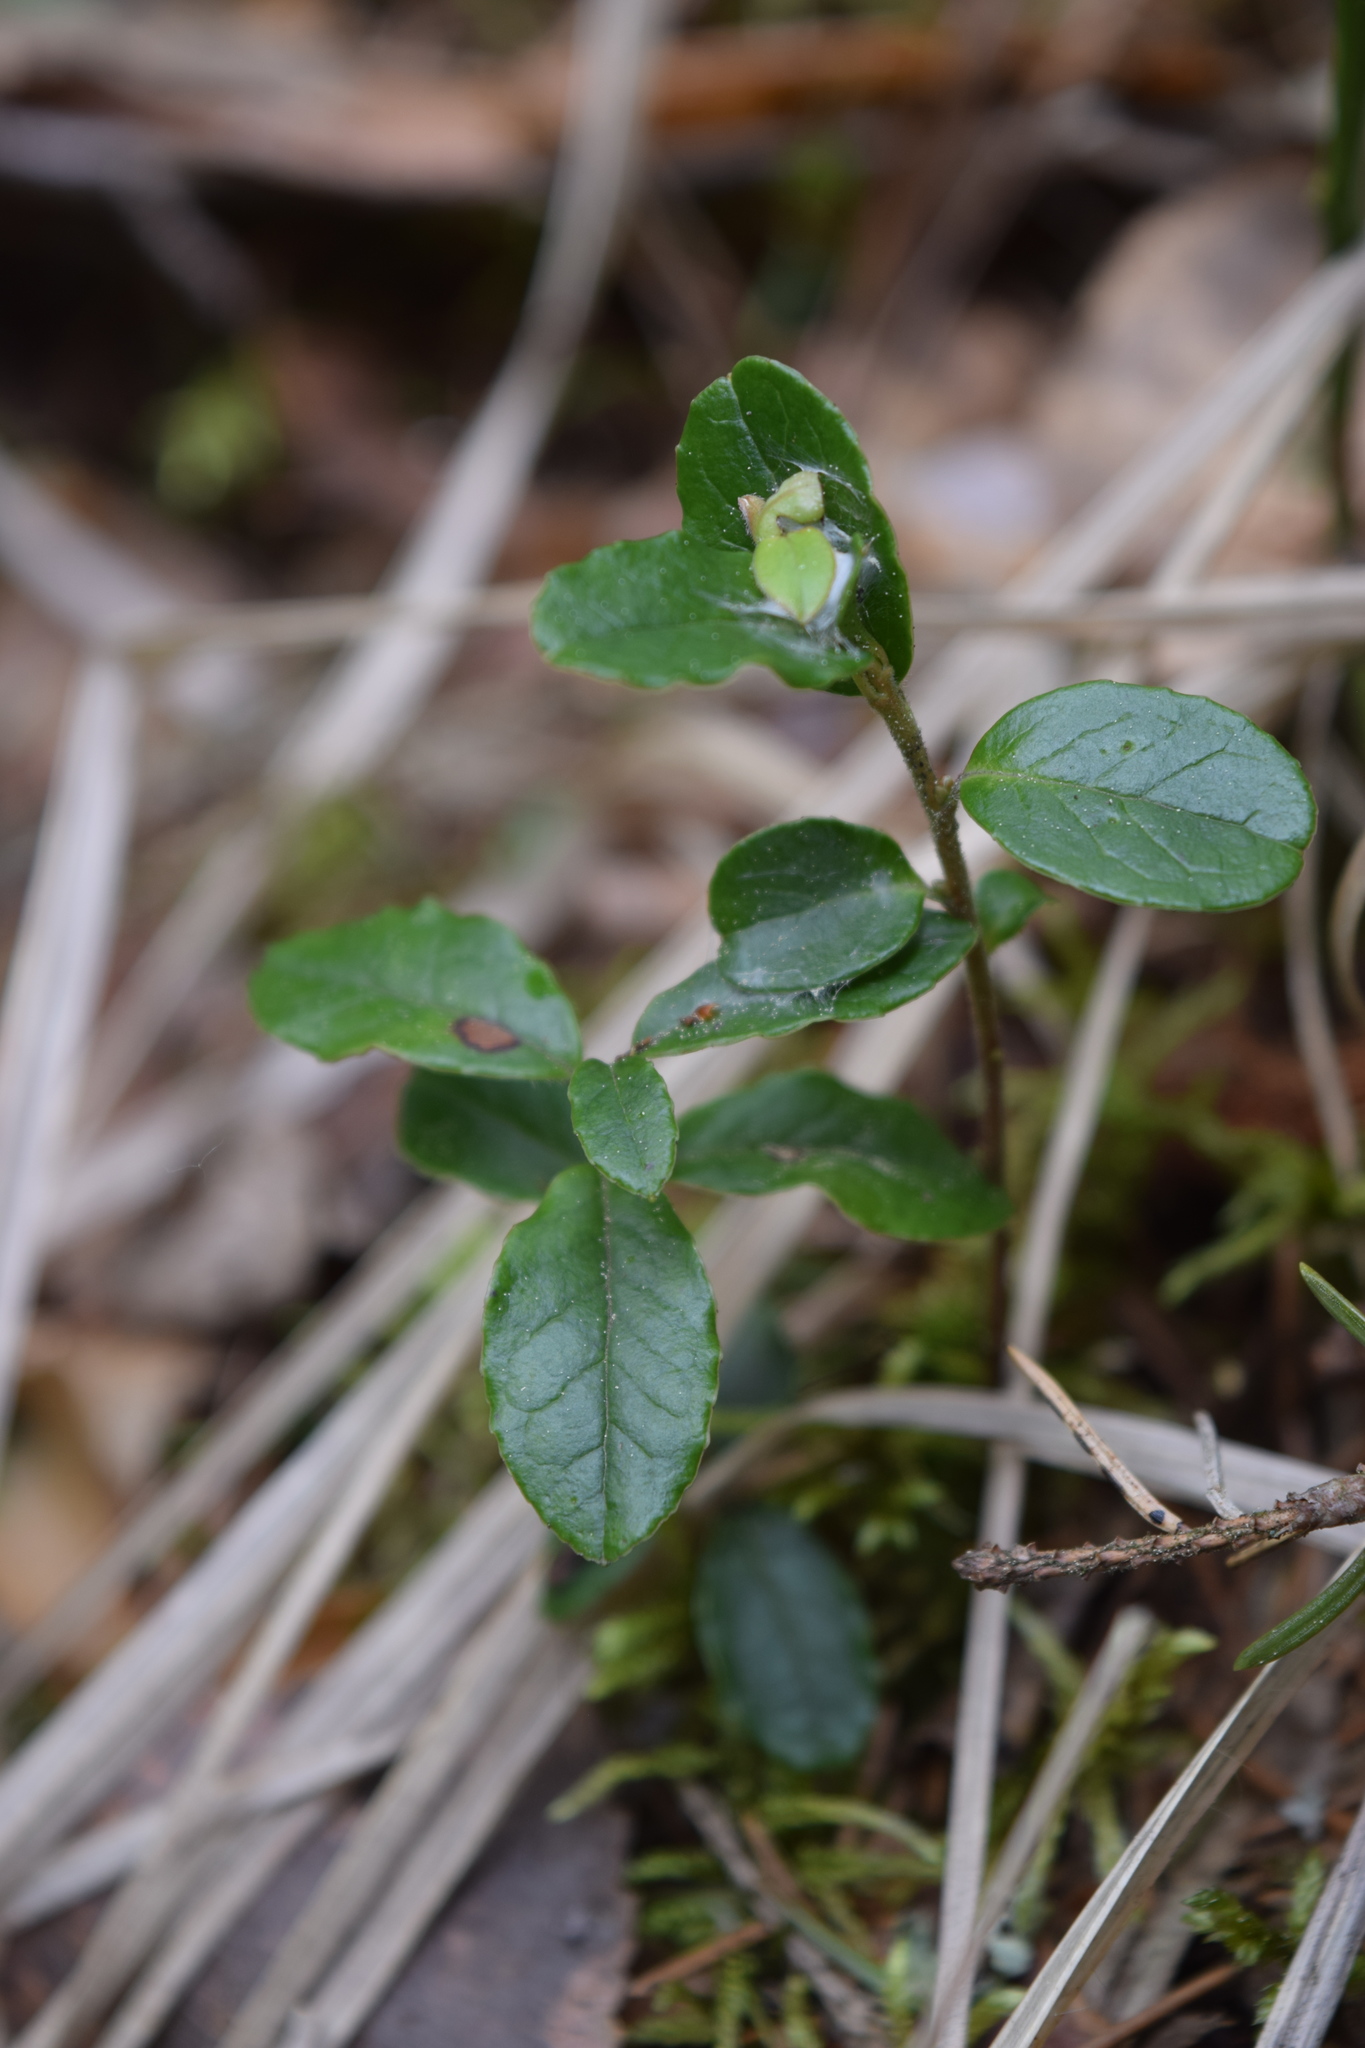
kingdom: Plantae
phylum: Tracheophyta
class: Magnoliopsida
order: Ericales
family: Ericaceae
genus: Vaccinium
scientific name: Vaccinium vitis-idaea
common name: Cowberry
